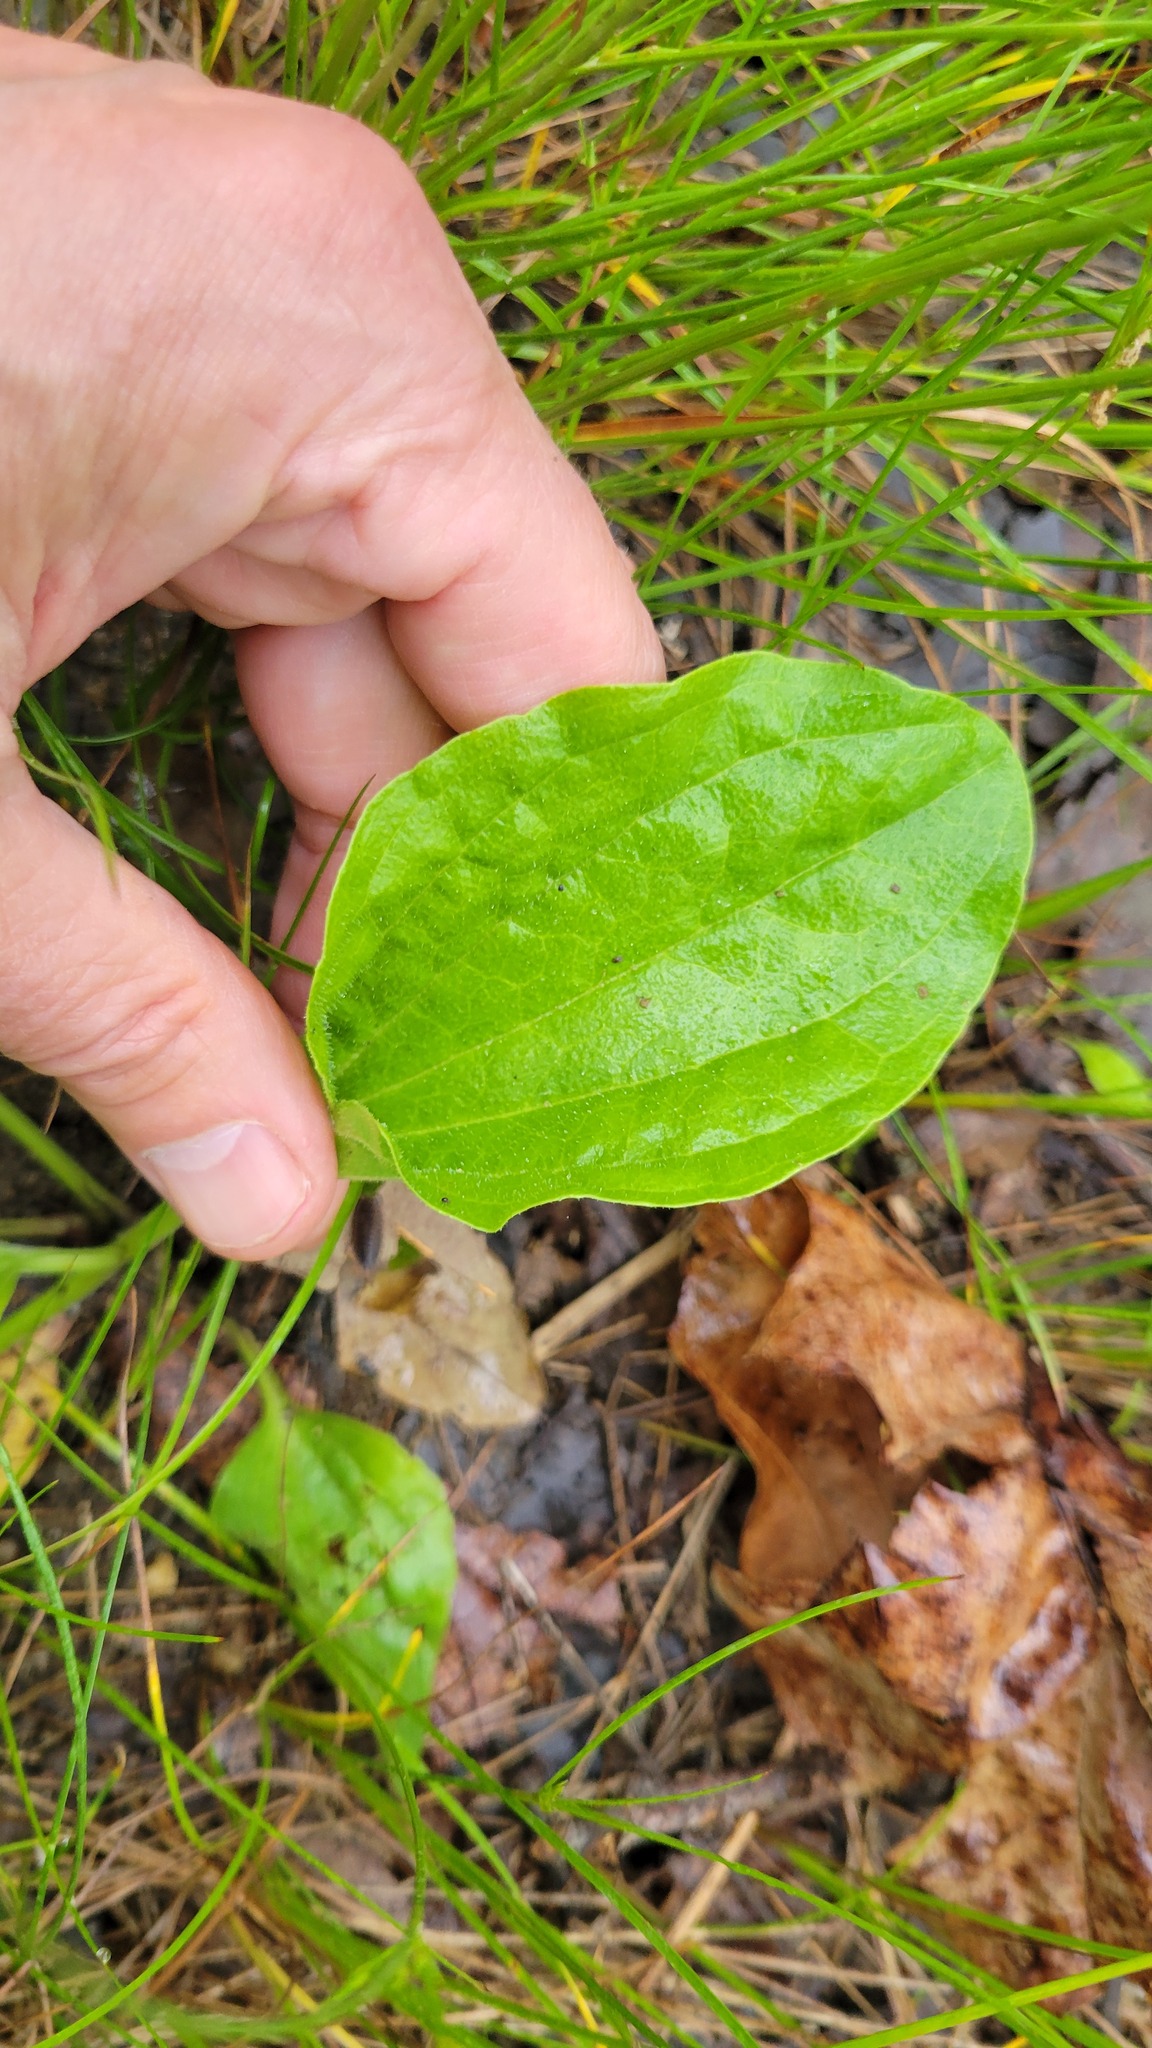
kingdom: Plantae
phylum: Tracheophyta
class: Magnoliopsida
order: Lamiales
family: Plantaginaceae
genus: Plantago
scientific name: Plantago major
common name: Common plantain
